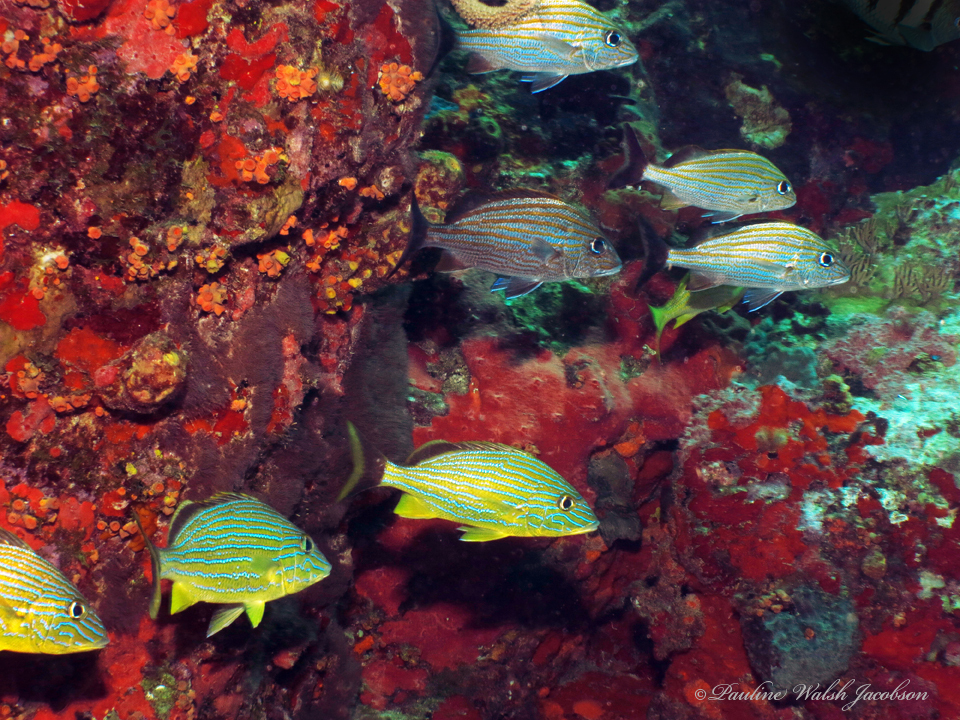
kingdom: Animalia
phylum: Chordata
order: Perciformes
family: Haemulidae
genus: Haemulon
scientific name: Haemulon carbonarium
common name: Caesar grunt
